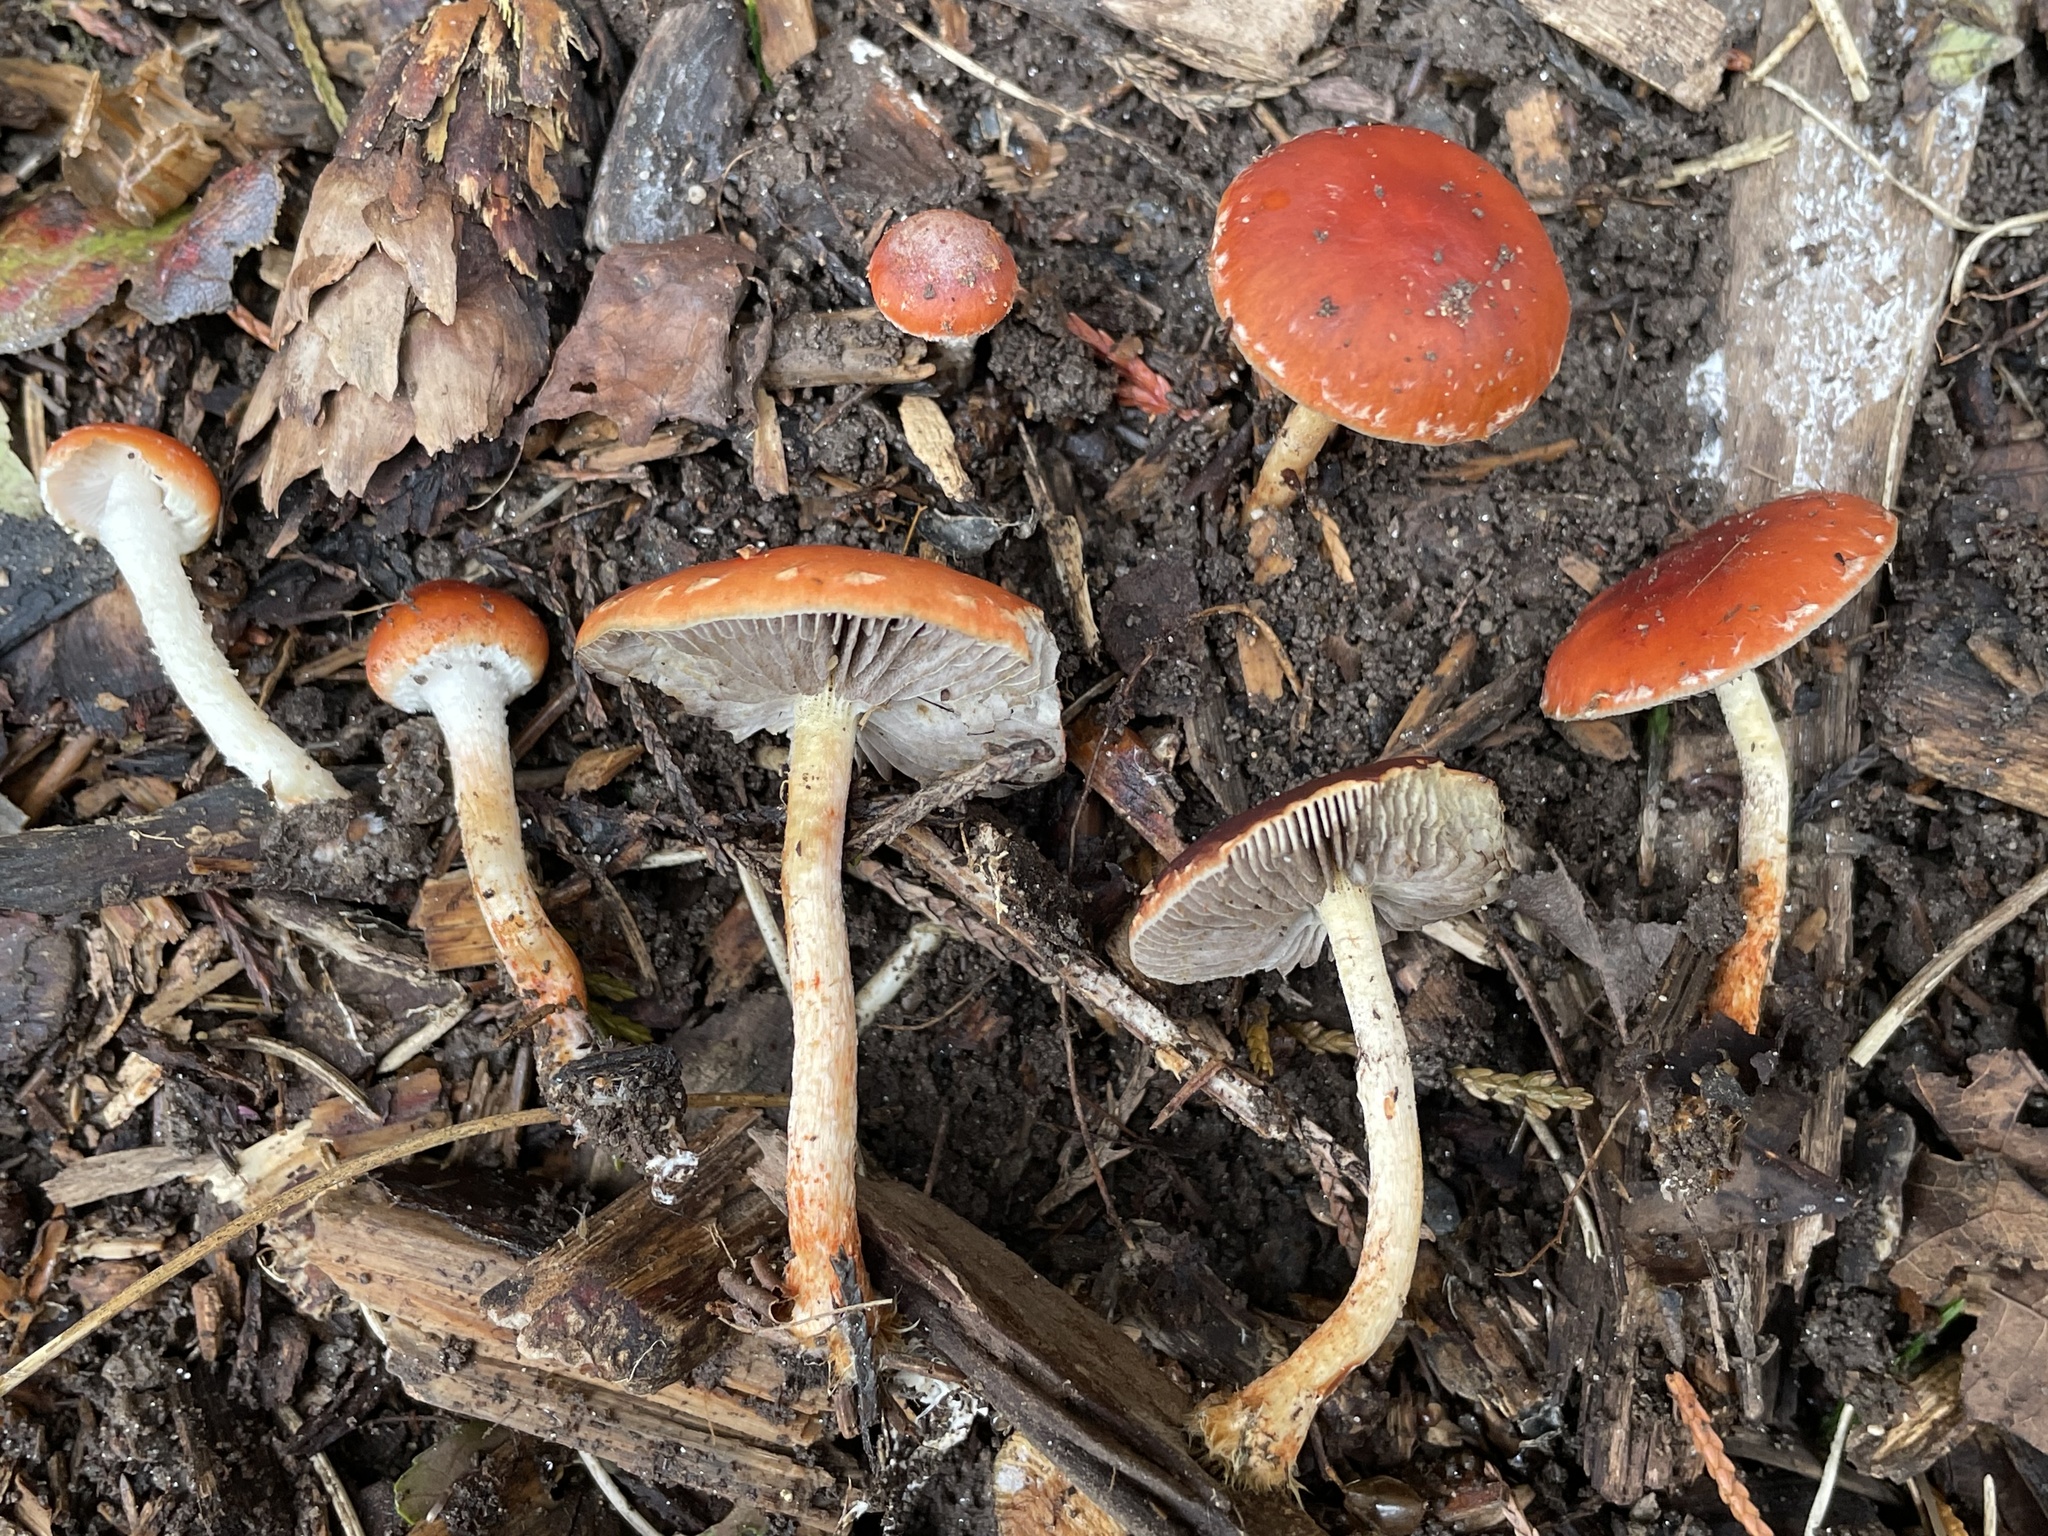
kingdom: Fungi
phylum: Basidiomycota
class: Agaricomycetes
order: Agaricales
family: Strophariaceae
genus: Leratiomyces
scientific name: Leratiomyces ceres
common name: Redlead roundhead
